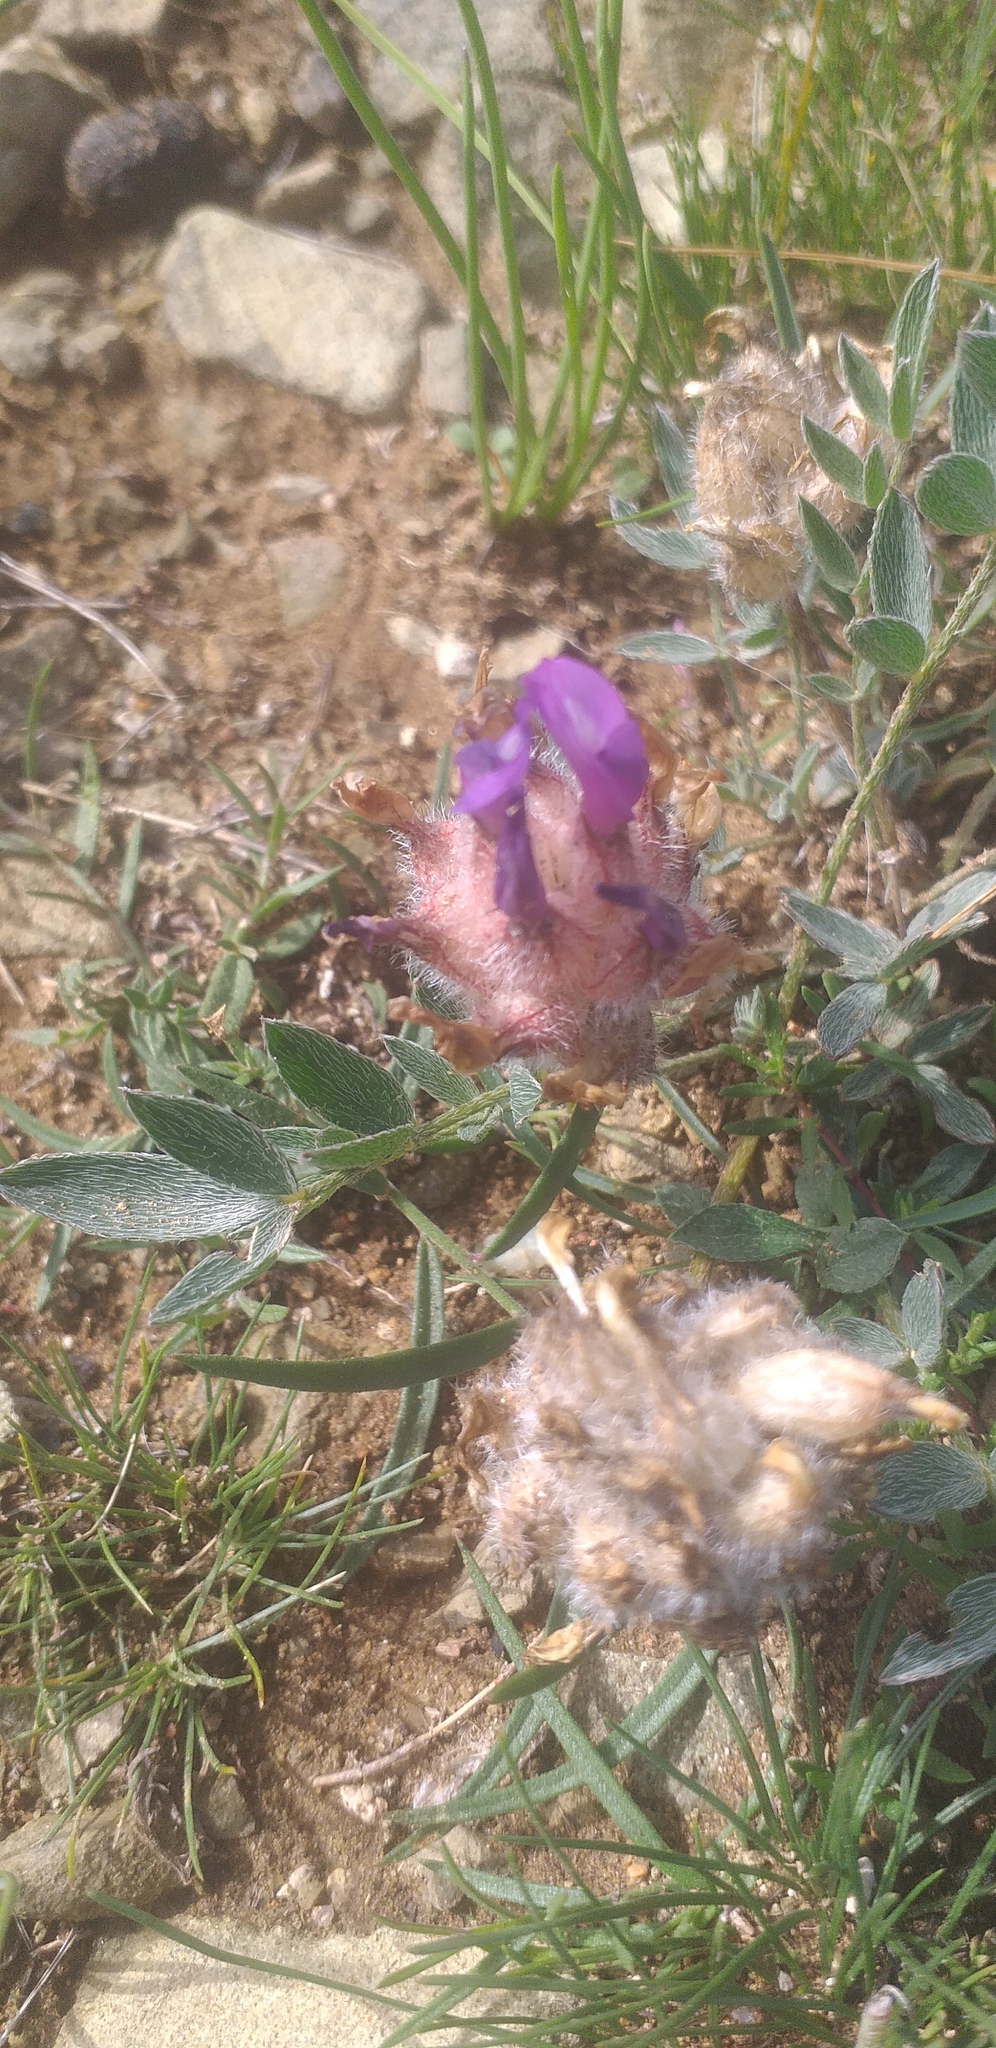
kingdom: Plantae
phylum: Tracheophyta
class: Magnoliopsida
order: Fabales
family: Fabaceae
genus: Astragalus
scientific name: Astragalus laguroides
